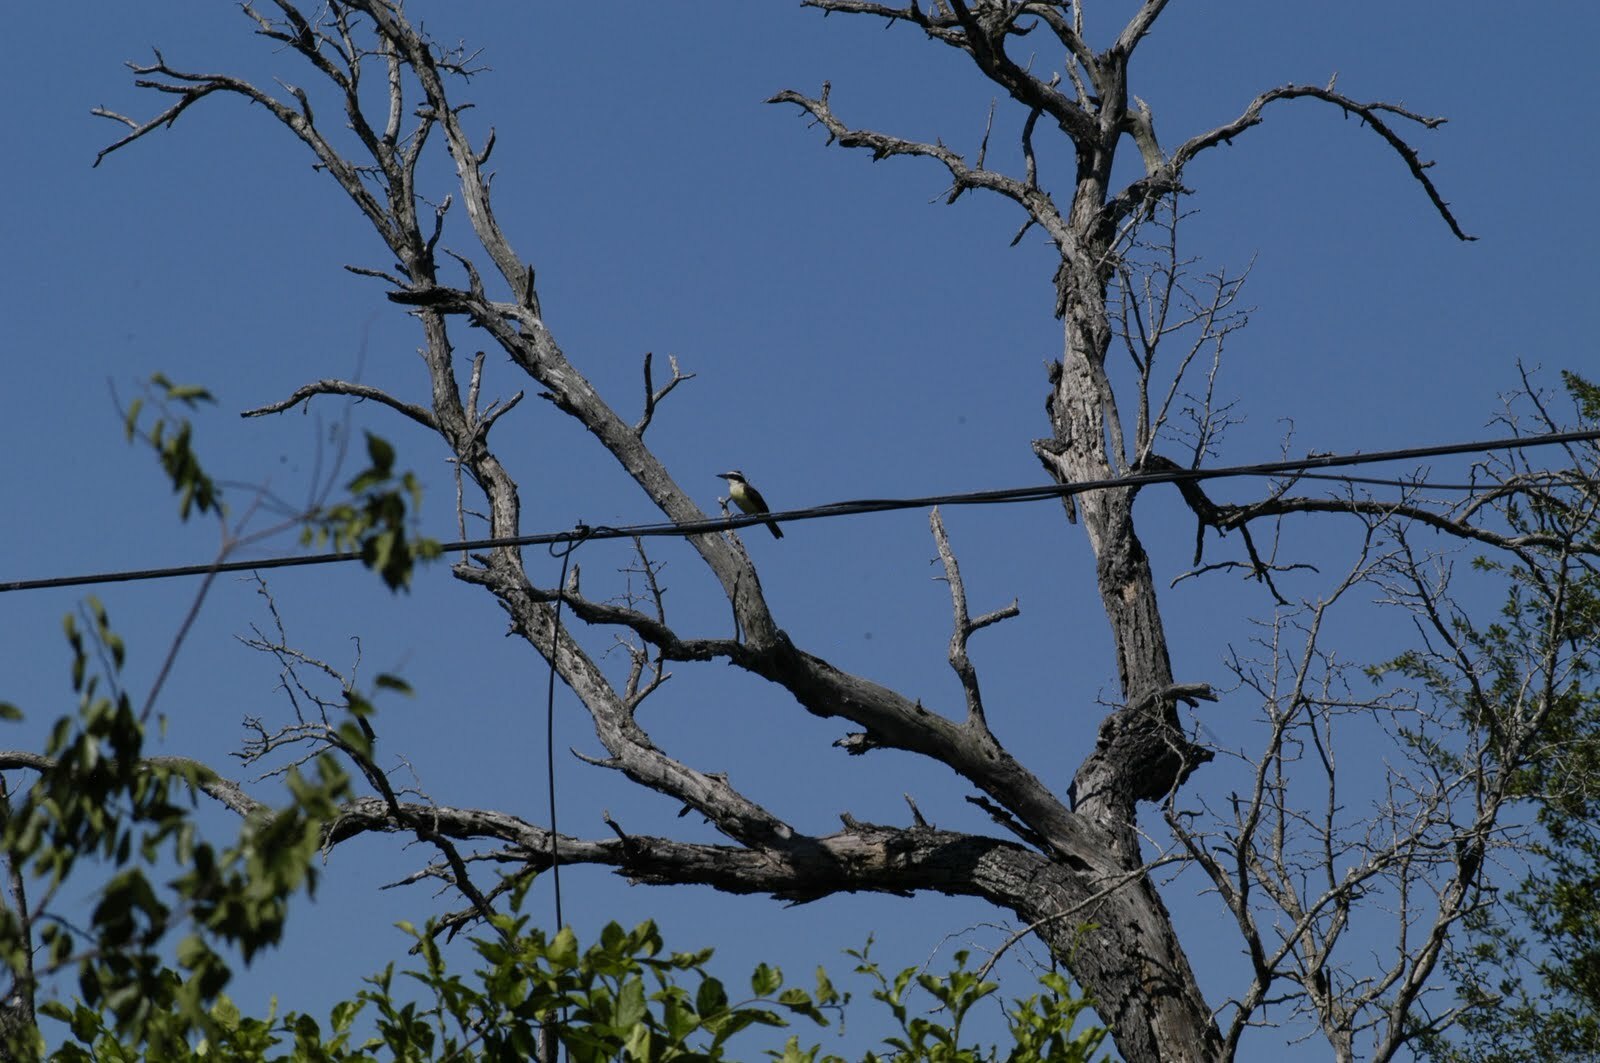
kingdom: Animalia
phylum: Chordata
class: Aves
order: Passeriformes
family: Tyrannidae
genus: Pitangus
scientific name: Pitangus sulphuratus
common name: Great kiskadee
